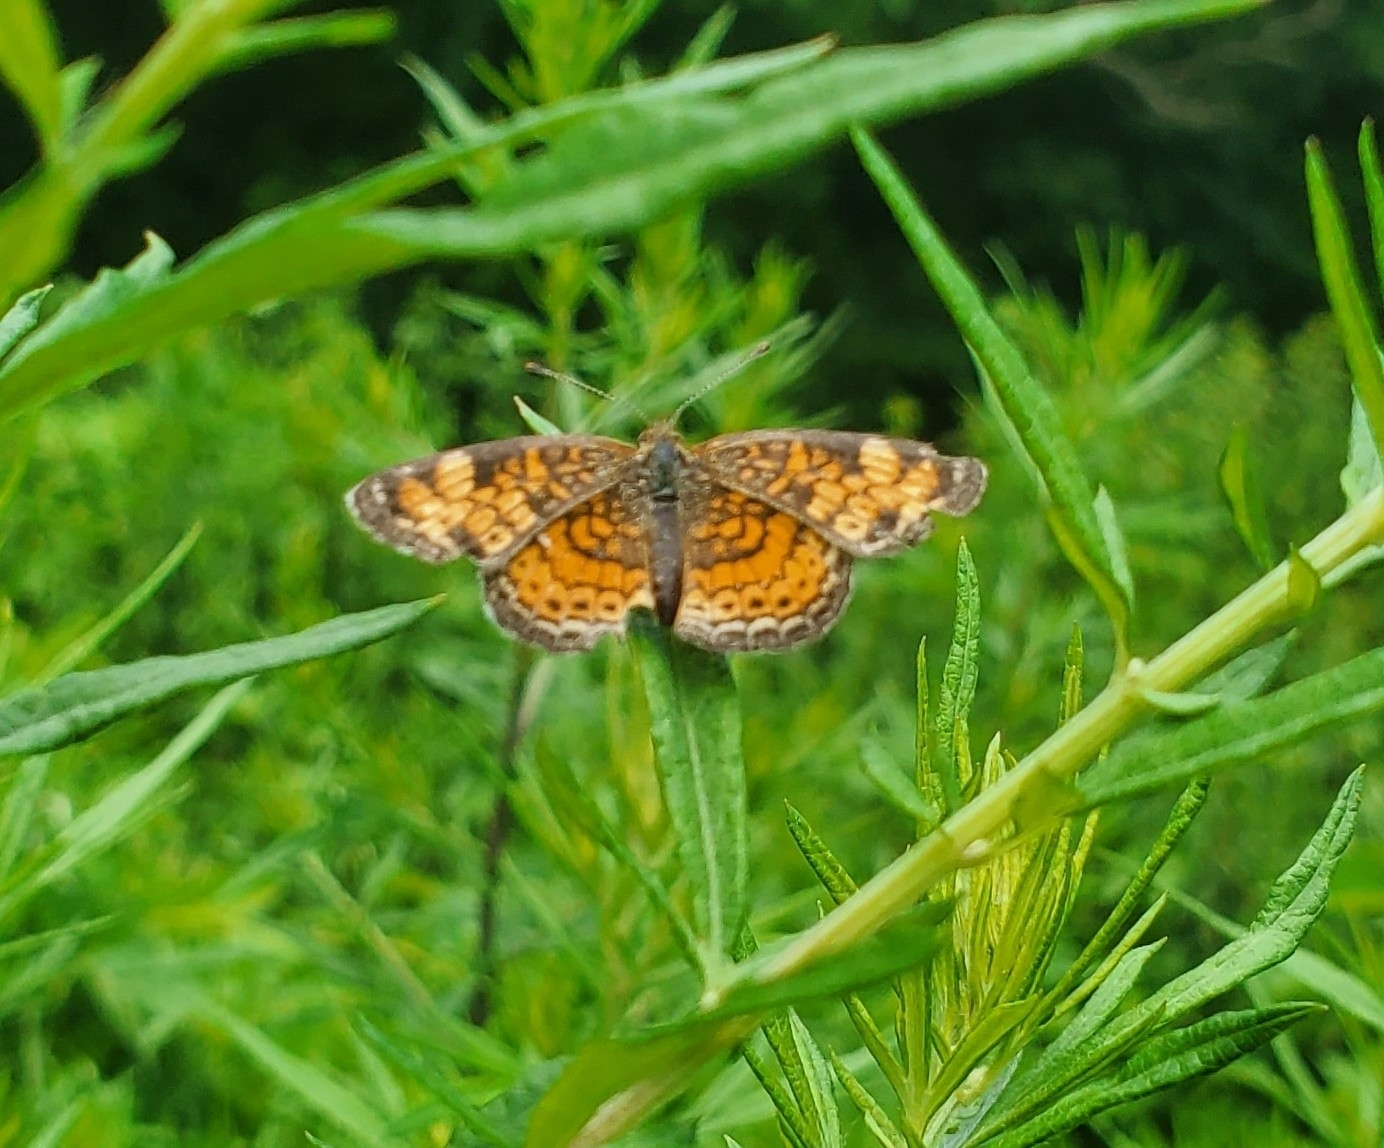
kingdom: Animalia
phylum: Arthropoda
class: Insecta
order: Lepidoptera
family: Nymphalidae
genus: Phyciodes
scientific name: Phyciodes tharos
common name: Pearl crescent
